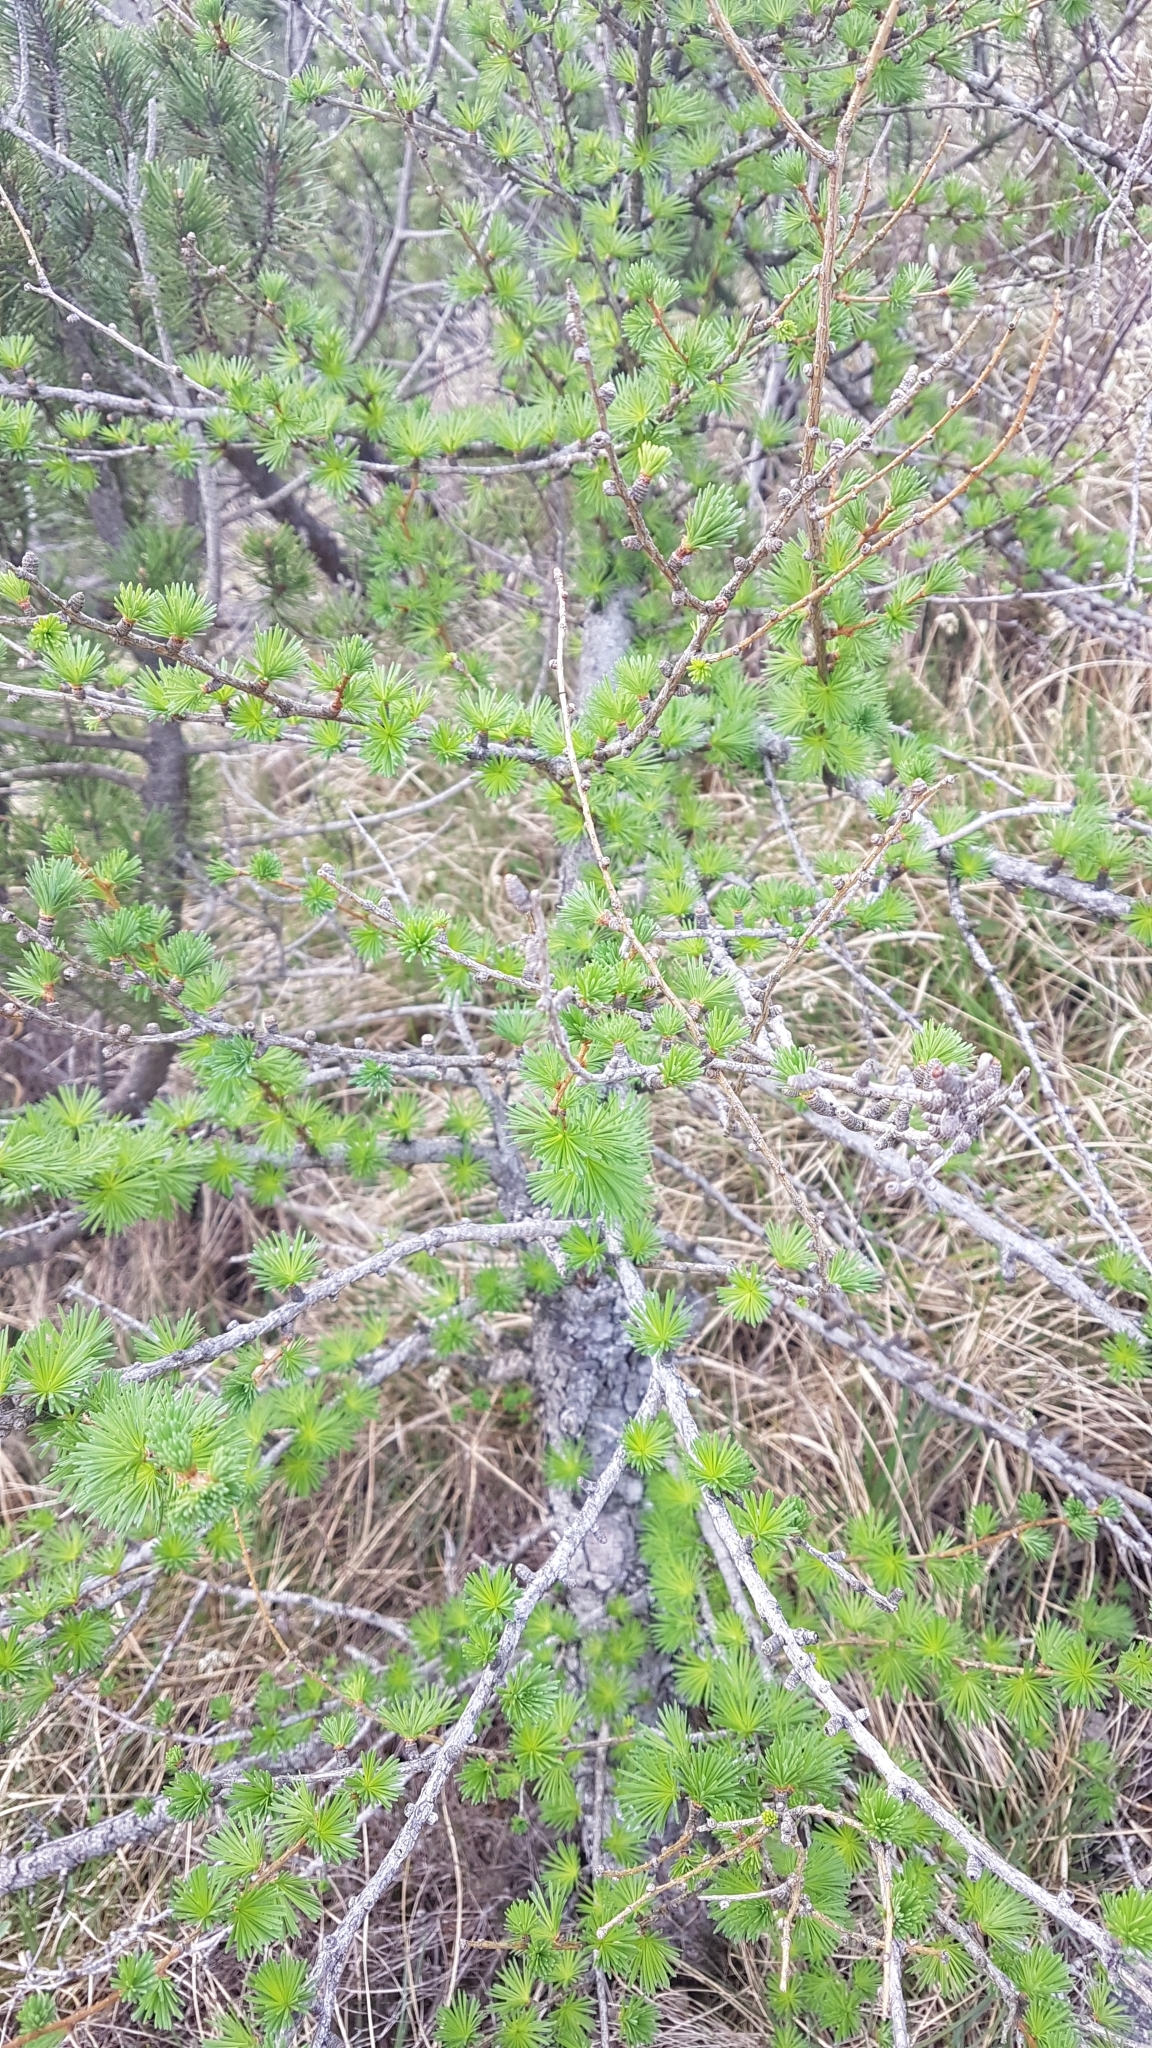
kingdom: Plantae
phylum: Tracheophyta
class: Pinopsida
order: Pinales
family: Pinaceae
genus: Larix
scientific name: Larix decidua
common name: European larch
